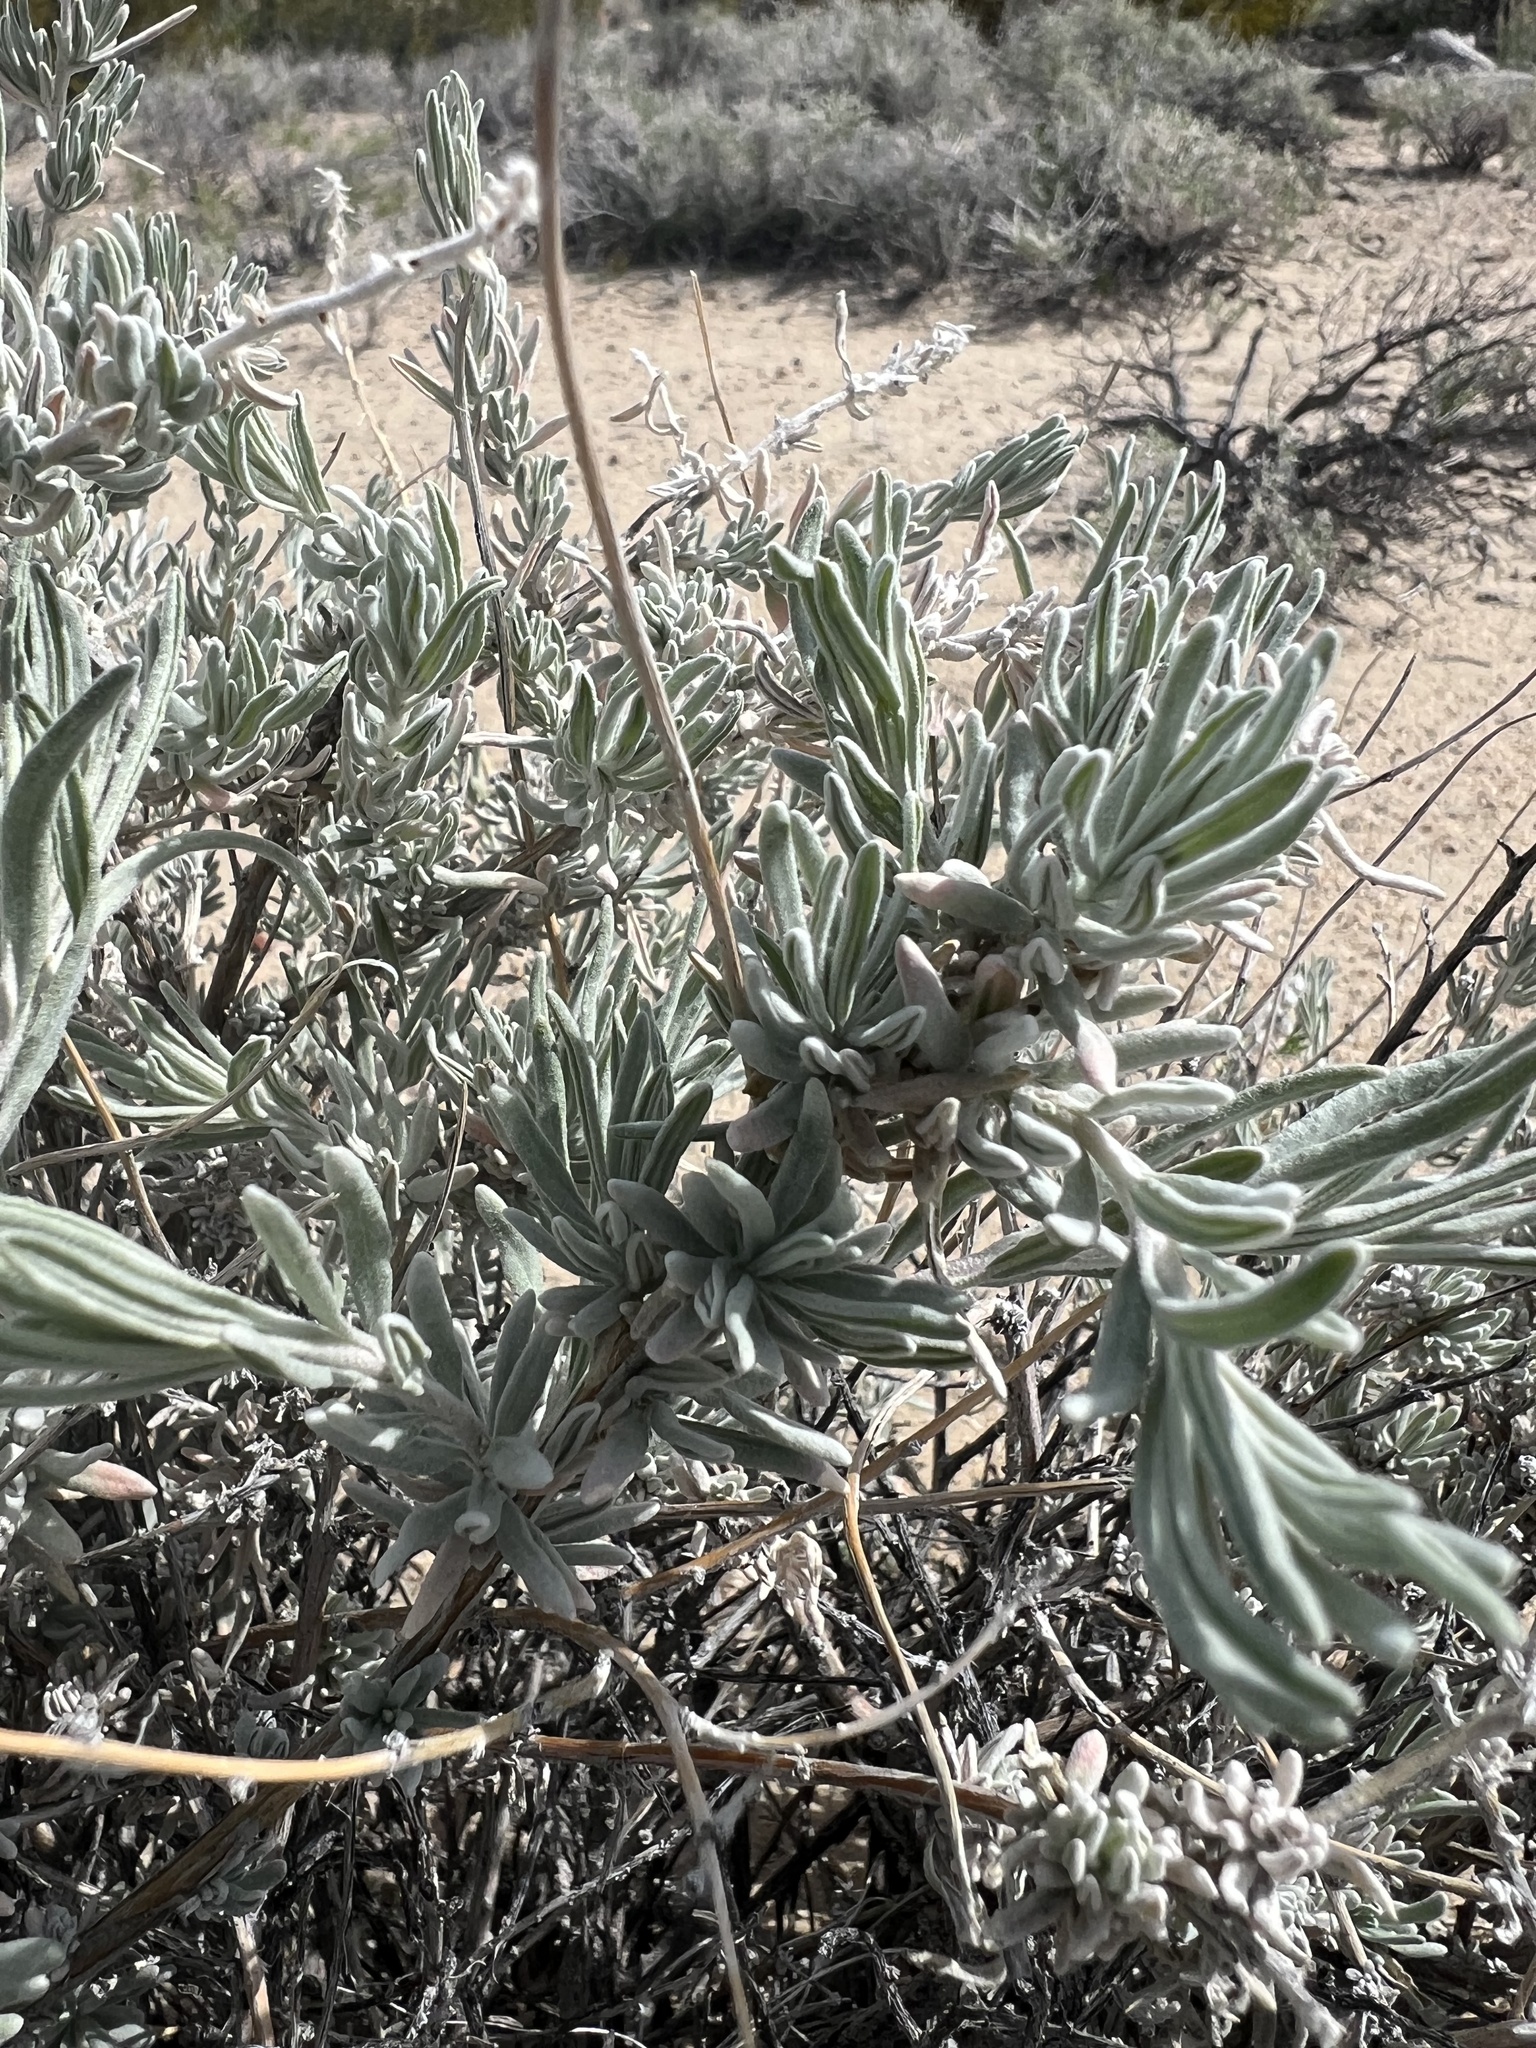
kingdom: Plantae
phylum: Tracheophyta
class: Magnoliopsida
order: Caryophyllales
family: Amaranthaceae
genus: Krascheninnikovia
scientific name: Krascheninnikovia lanata
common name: Winterfat
